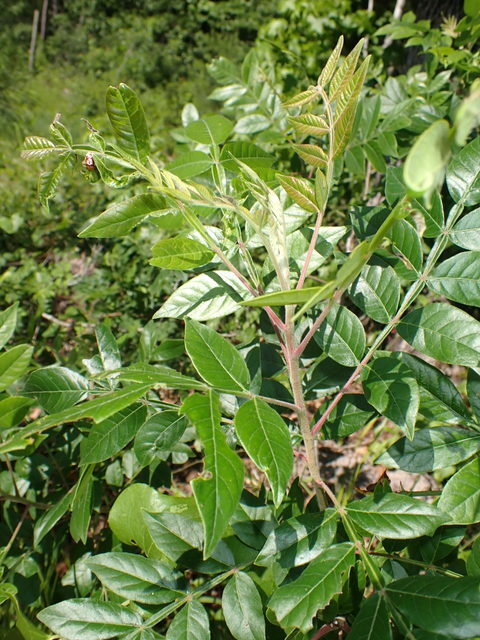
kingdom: Plantae
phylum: Tracheophyta
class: Magnoliopsida
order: Sapindales
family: Anacardiaceae
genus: Rhus
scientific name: Rhus copallina
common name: Shining sumac
